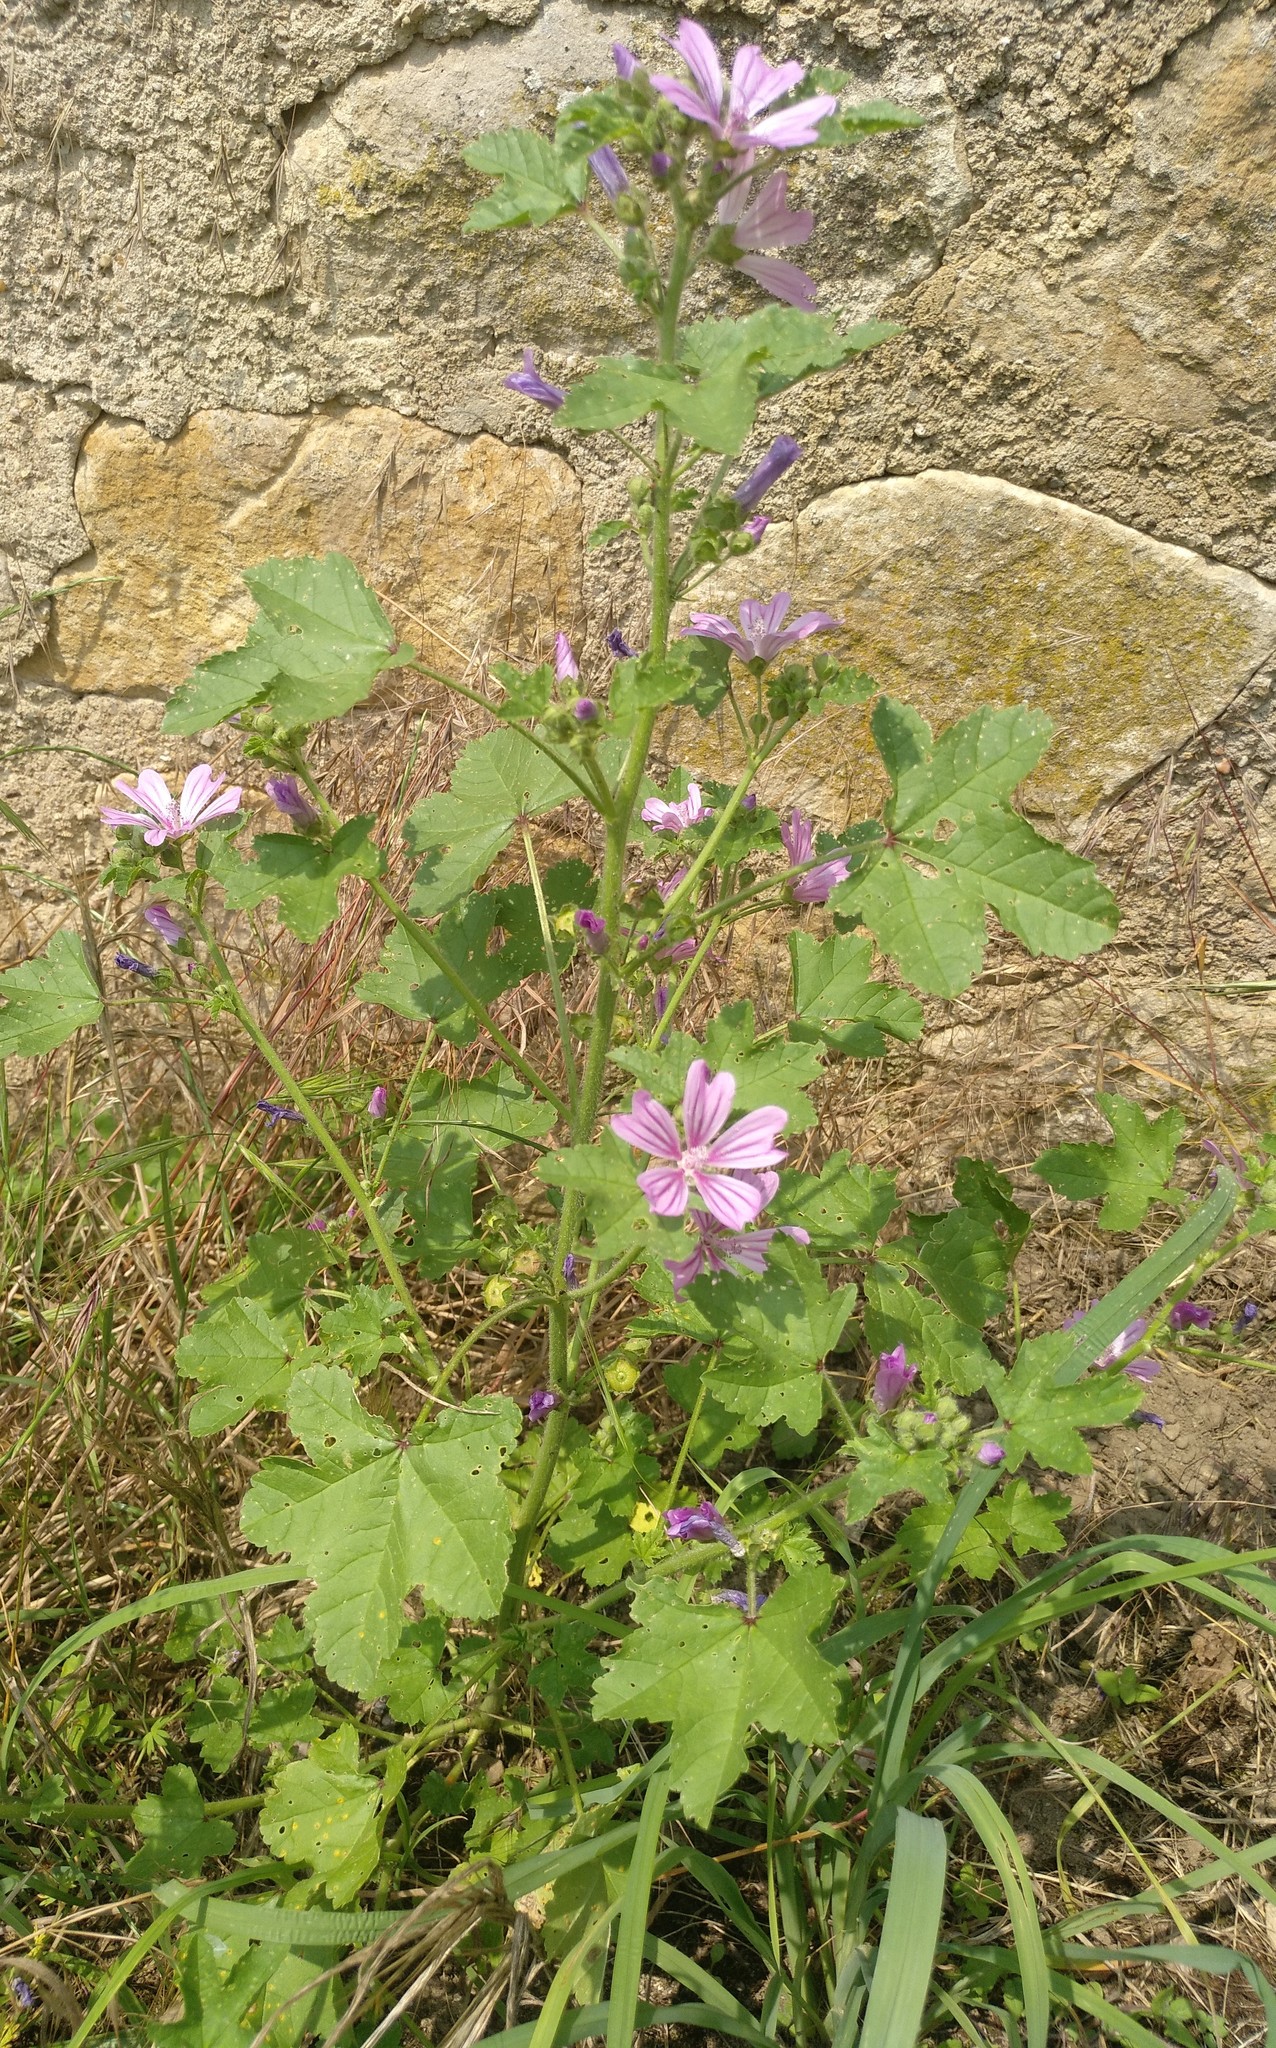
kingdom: Plantae
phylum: Tracheophyta
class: Magnoliopsida
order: Malvales
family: Malvaceae
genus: Malva
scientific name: Malva sylvestris
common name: Common mallow
